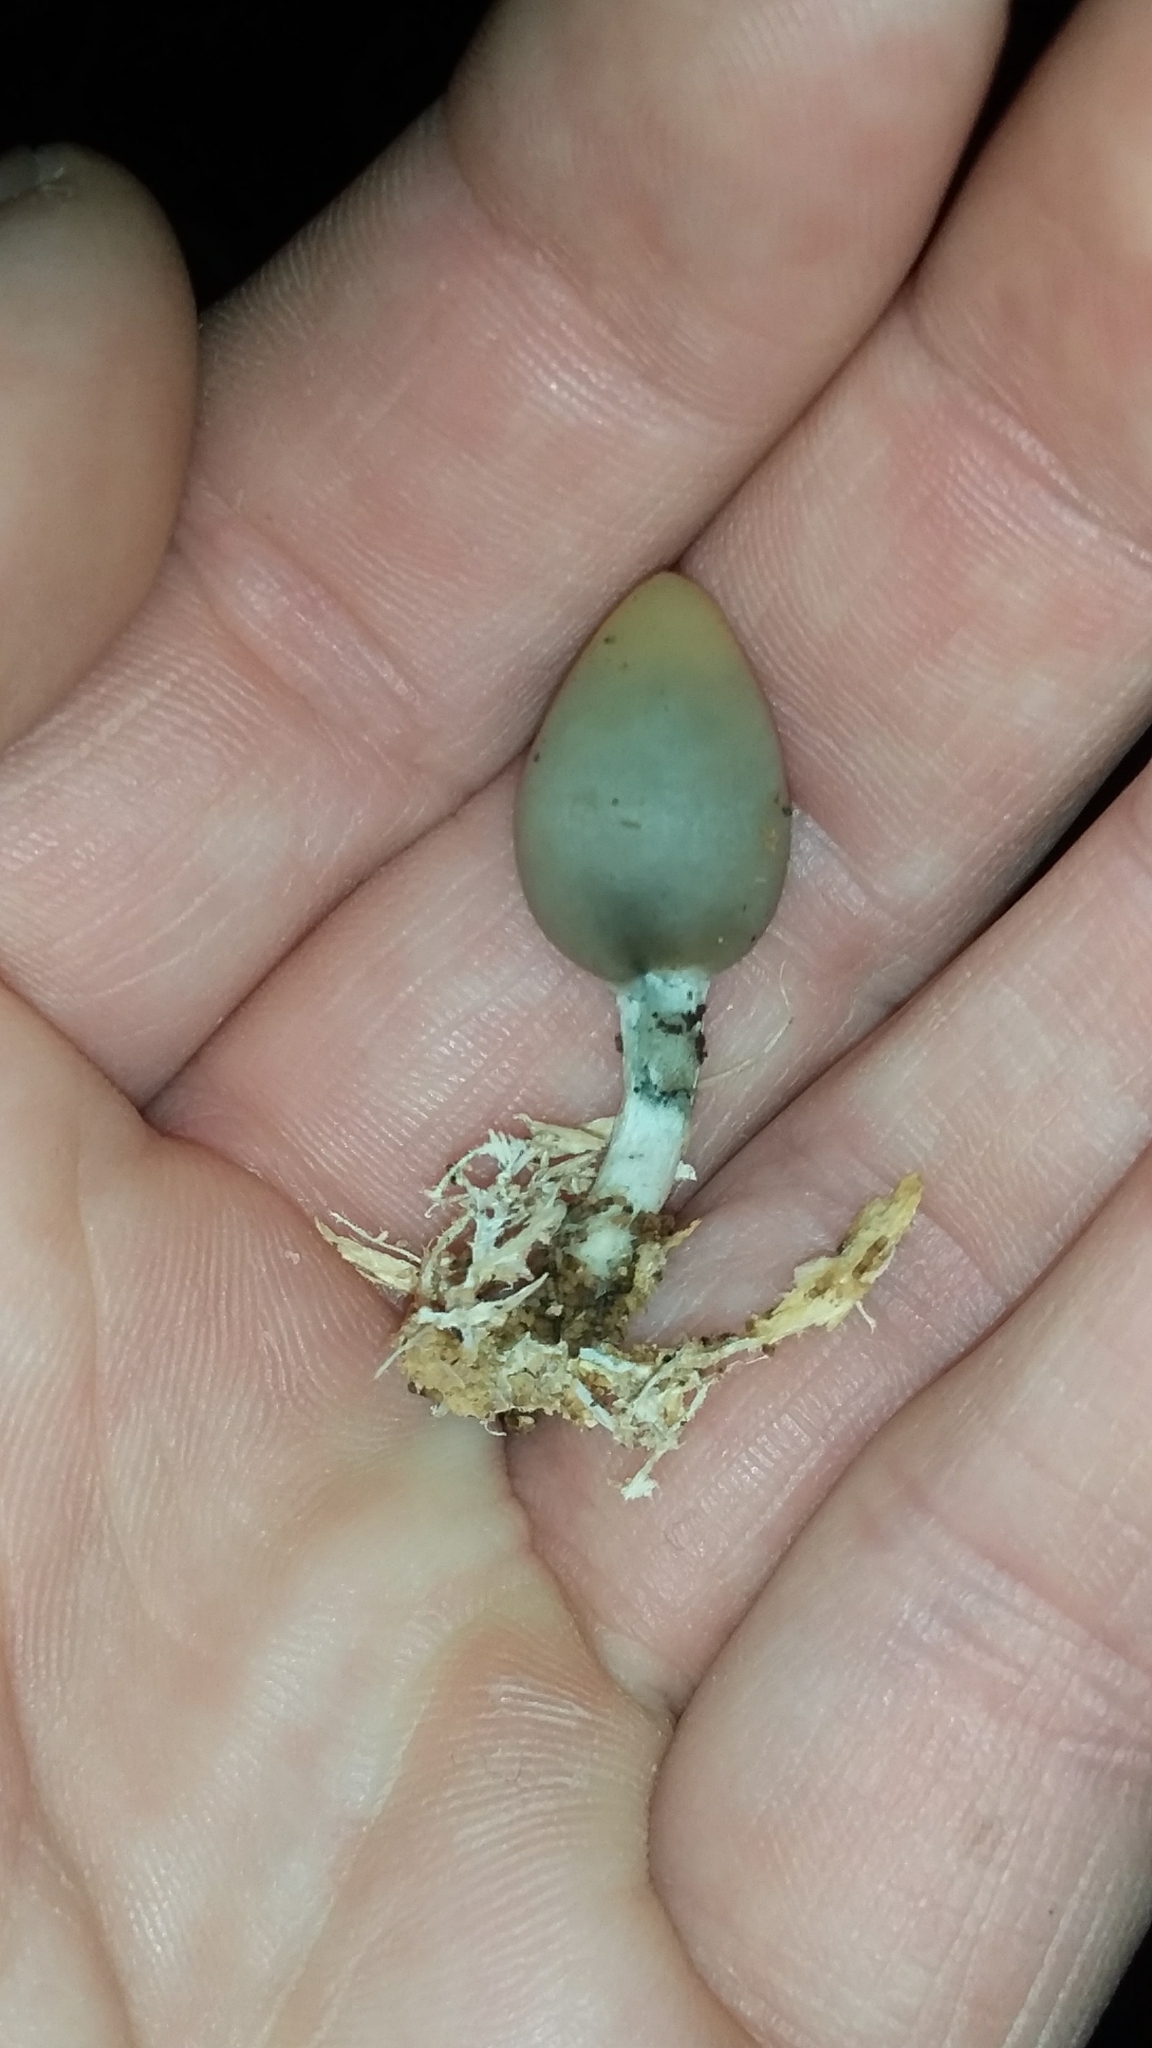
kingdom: Fungi
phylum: Basidiomycota
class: Agaricomycetes
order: Agaricales
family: Hymenogastraceae
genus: Psilocybe
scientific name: Psilocybe weraroa
